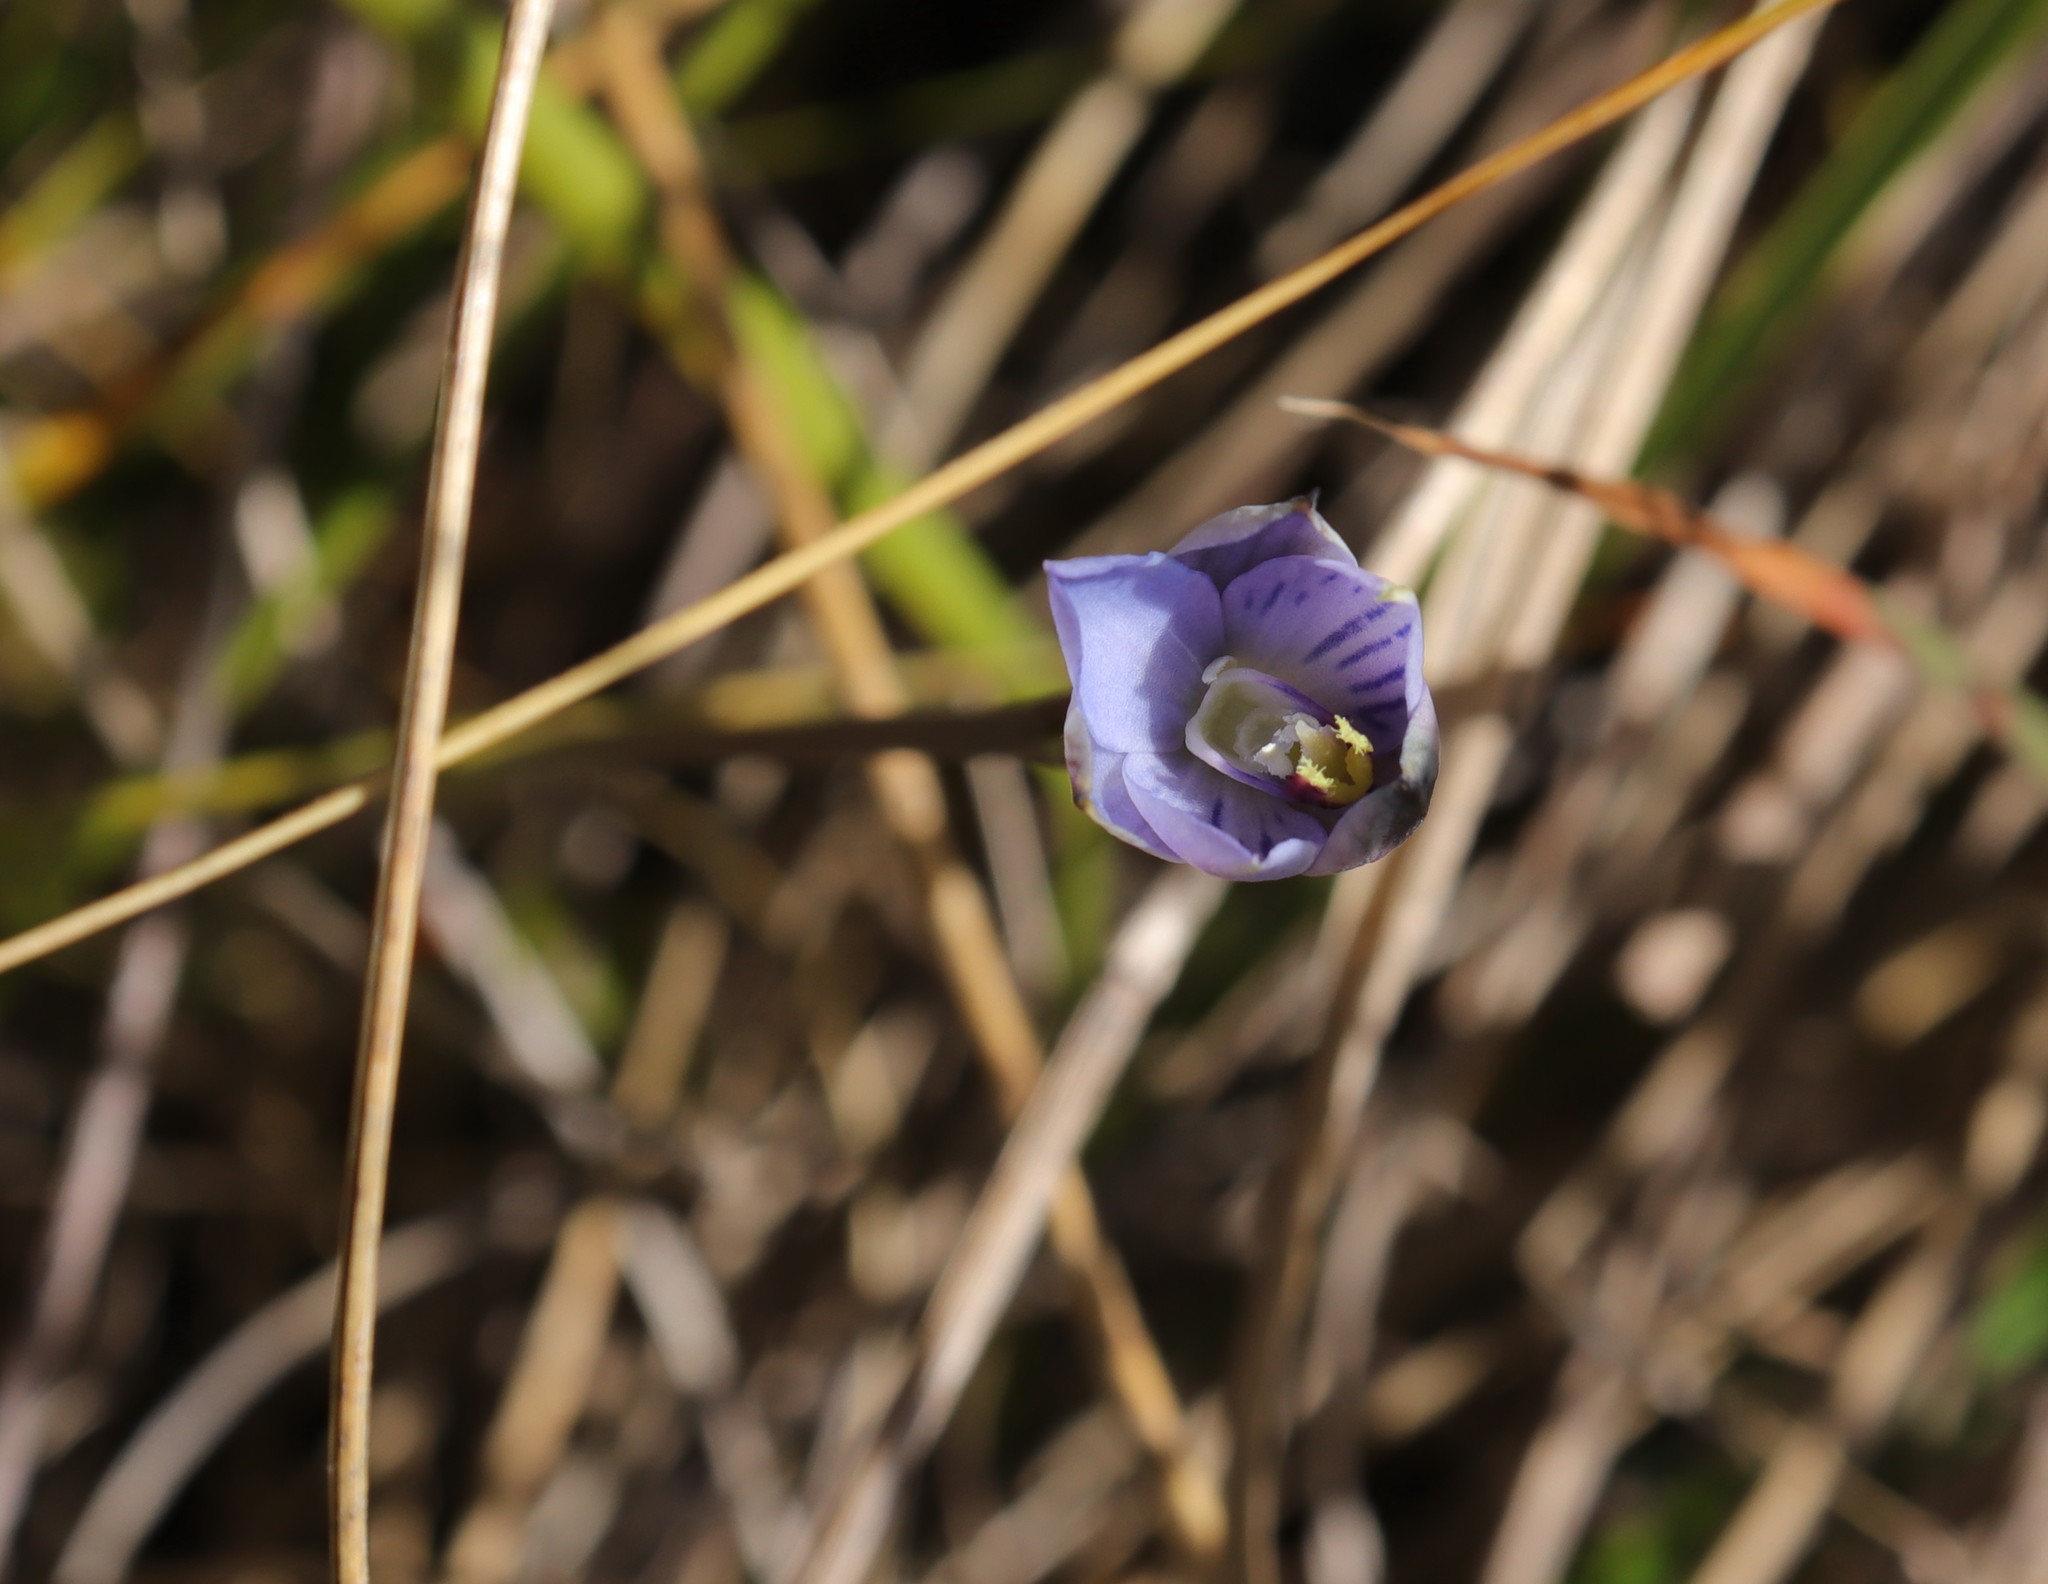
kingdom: Plantae
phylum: Tracheophyta
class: Liliopsida
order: Asparagales
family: Orchidaceae
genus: Thelymitra
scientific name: Thelymitra pulchella
